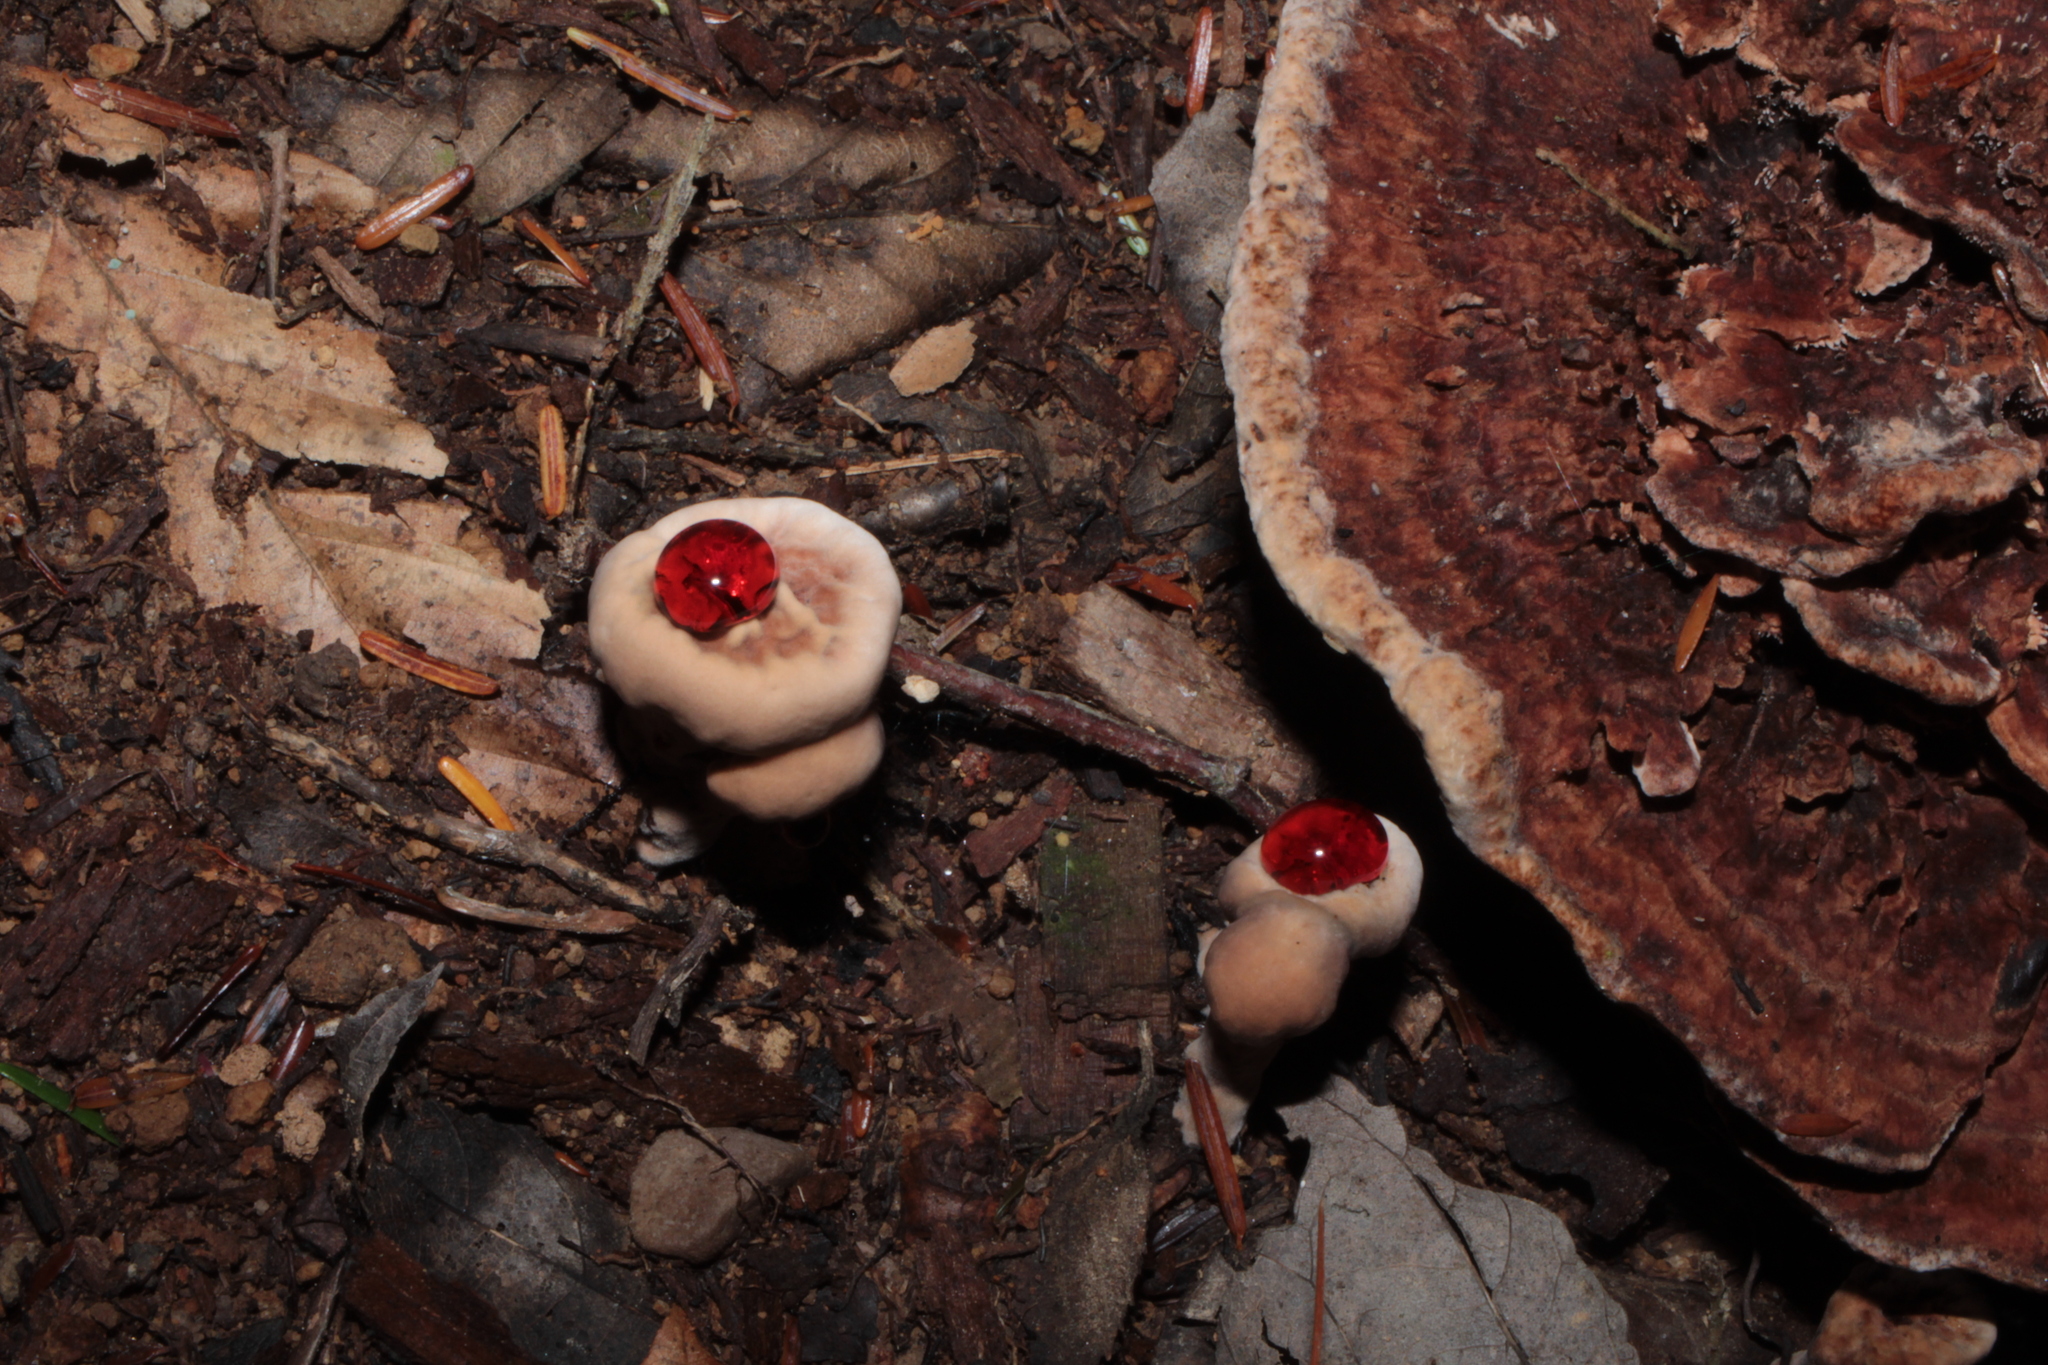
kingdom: Fungi
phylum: Basidiomycota
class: Agaricomycetes
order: Thelephorales
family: Bankeraceae
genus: Hydnellum
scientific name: Hydnellum peckii
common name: Devil's tooth
